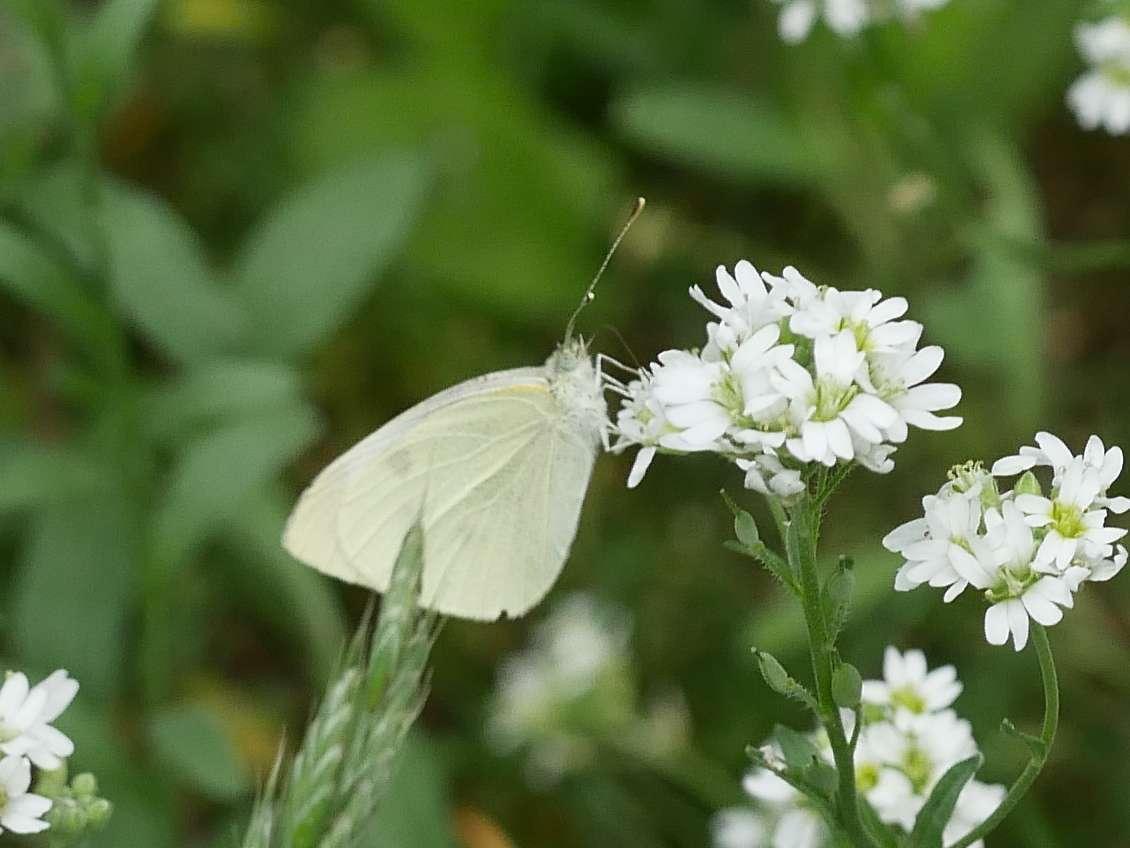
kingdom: Animalia
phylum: Arthropoda
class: Insecta
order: Lepidoptera
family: Pieridae
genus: Pieris
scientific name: Pieris rapae
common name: Small white
